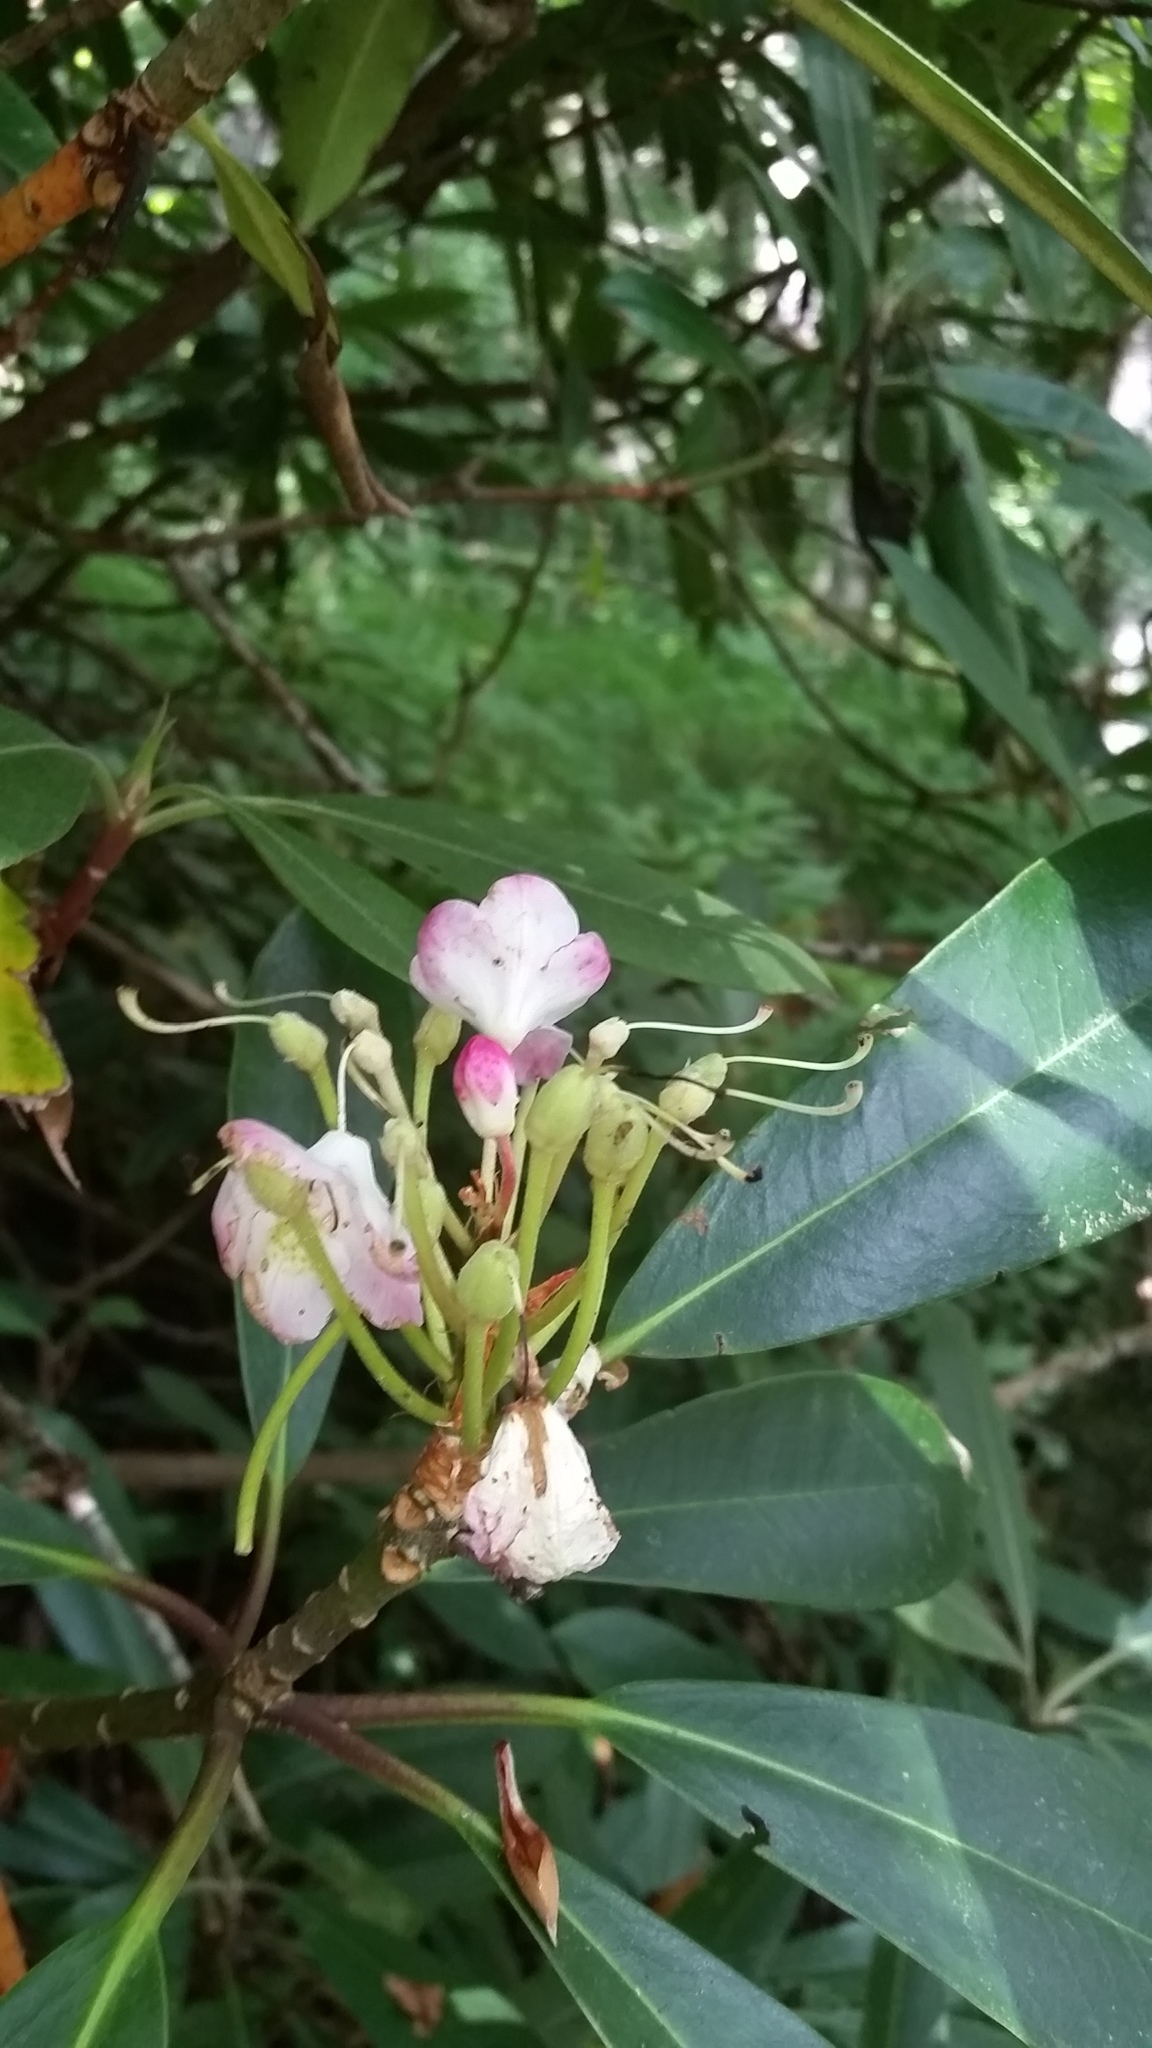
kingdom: Plantae
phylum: Tracheophyta
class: Magnoliopsida
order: Ericales
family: Ericaceae
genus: Rhododendron
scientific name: Rhododendron maximum
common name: Great rhododendron
